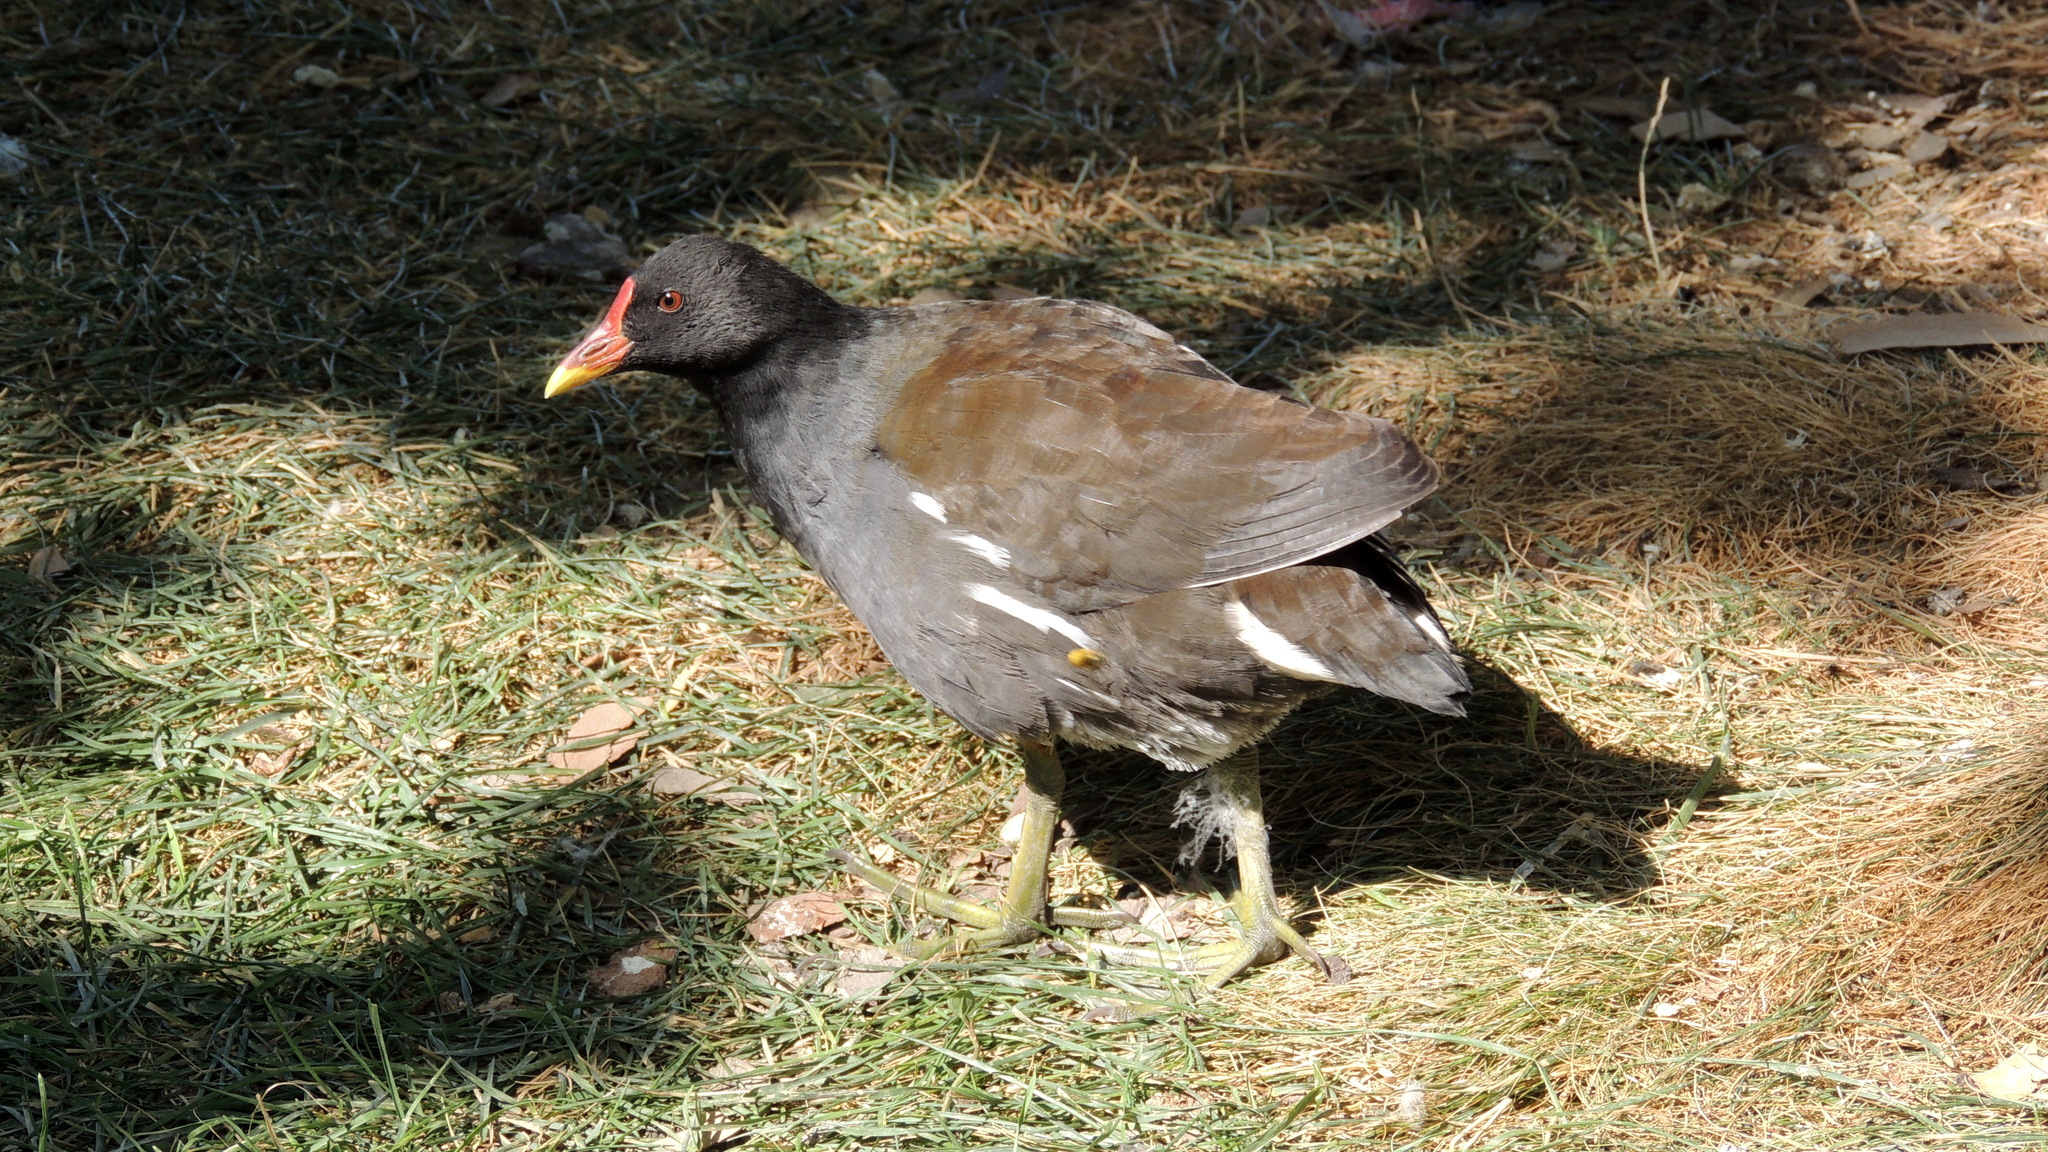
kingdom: Animalia
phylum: Chordata
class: Aves
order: Gruiformes
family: Rallidae
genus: Gallinula
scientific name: Gallinula chloropus
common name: Common moorhen
